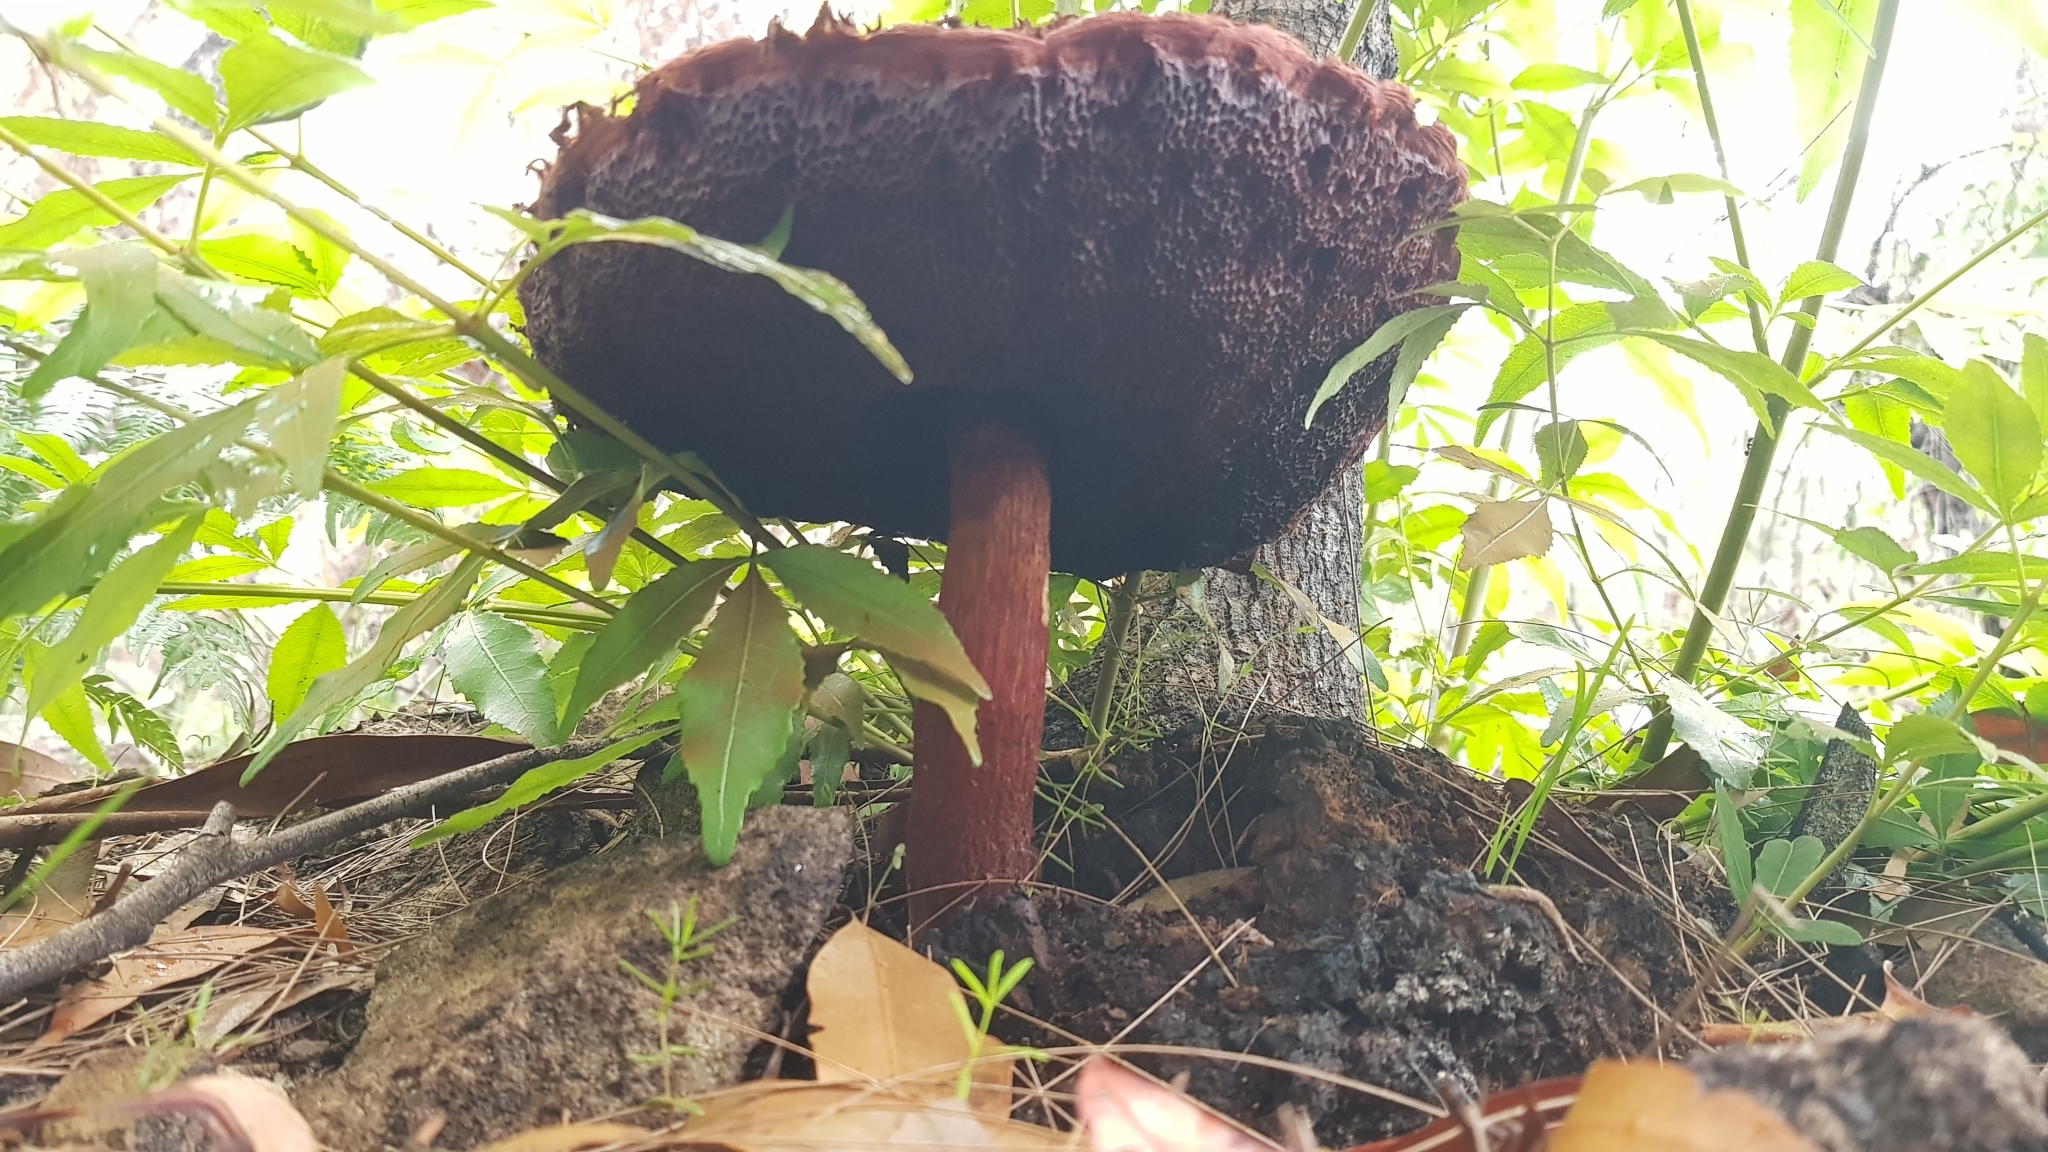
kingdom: Fungi
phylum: Basidiomycota
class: Agaricomycetes
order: Boletales
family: Boletaceae
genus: Boletellus
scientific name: Boletellus emodensis
